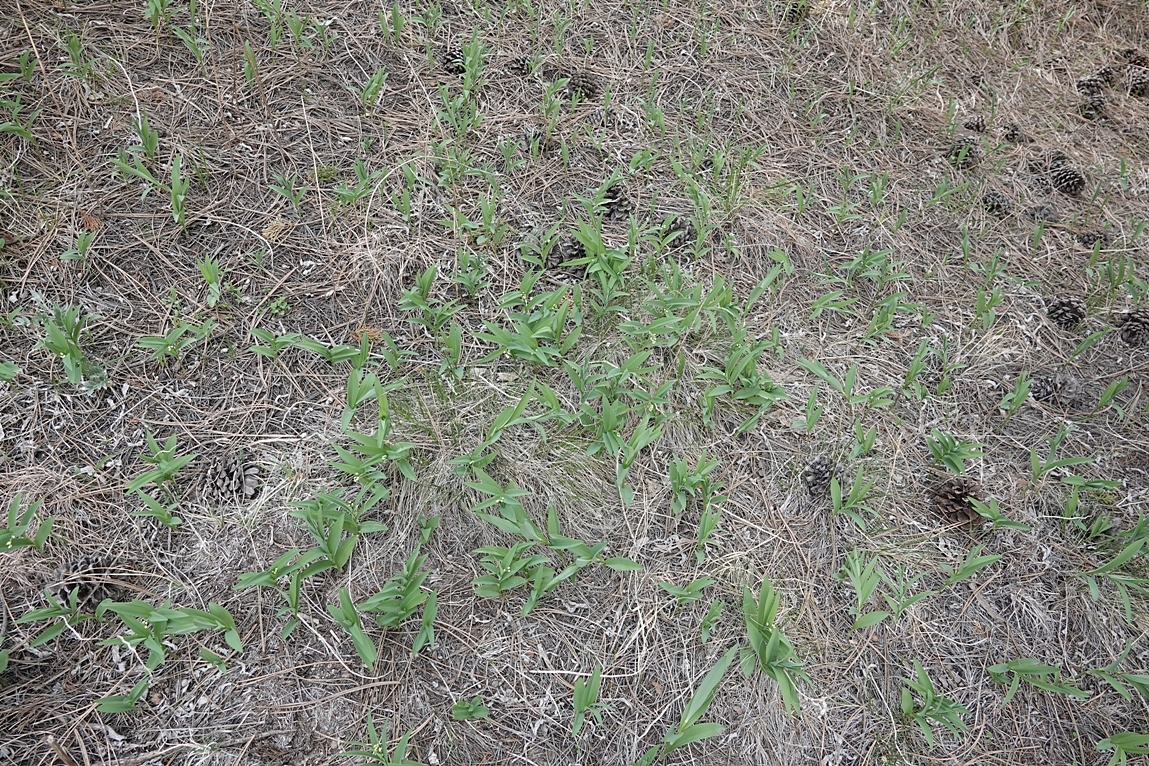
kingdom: Plantae
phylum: Tracheophyta
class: Liliopsida
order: Asparagales
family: Asparagaceae
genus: Maianthemum
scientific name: Maianthemum stellatum
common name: Little false solomon's seal
